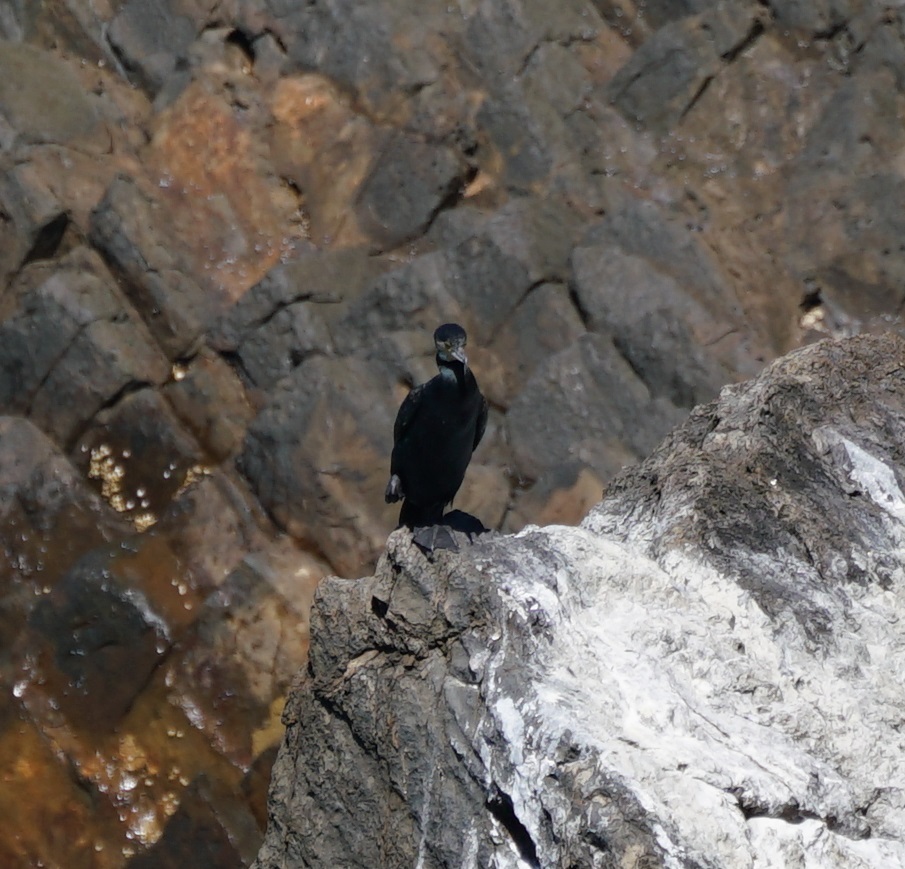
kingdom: Animalia
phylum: Chordata
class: Aves
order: Suliformes
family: Phalacrocoracidae
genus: Phalacrocorax
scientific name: Phalacrocorax carbo
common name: Great cormorant
